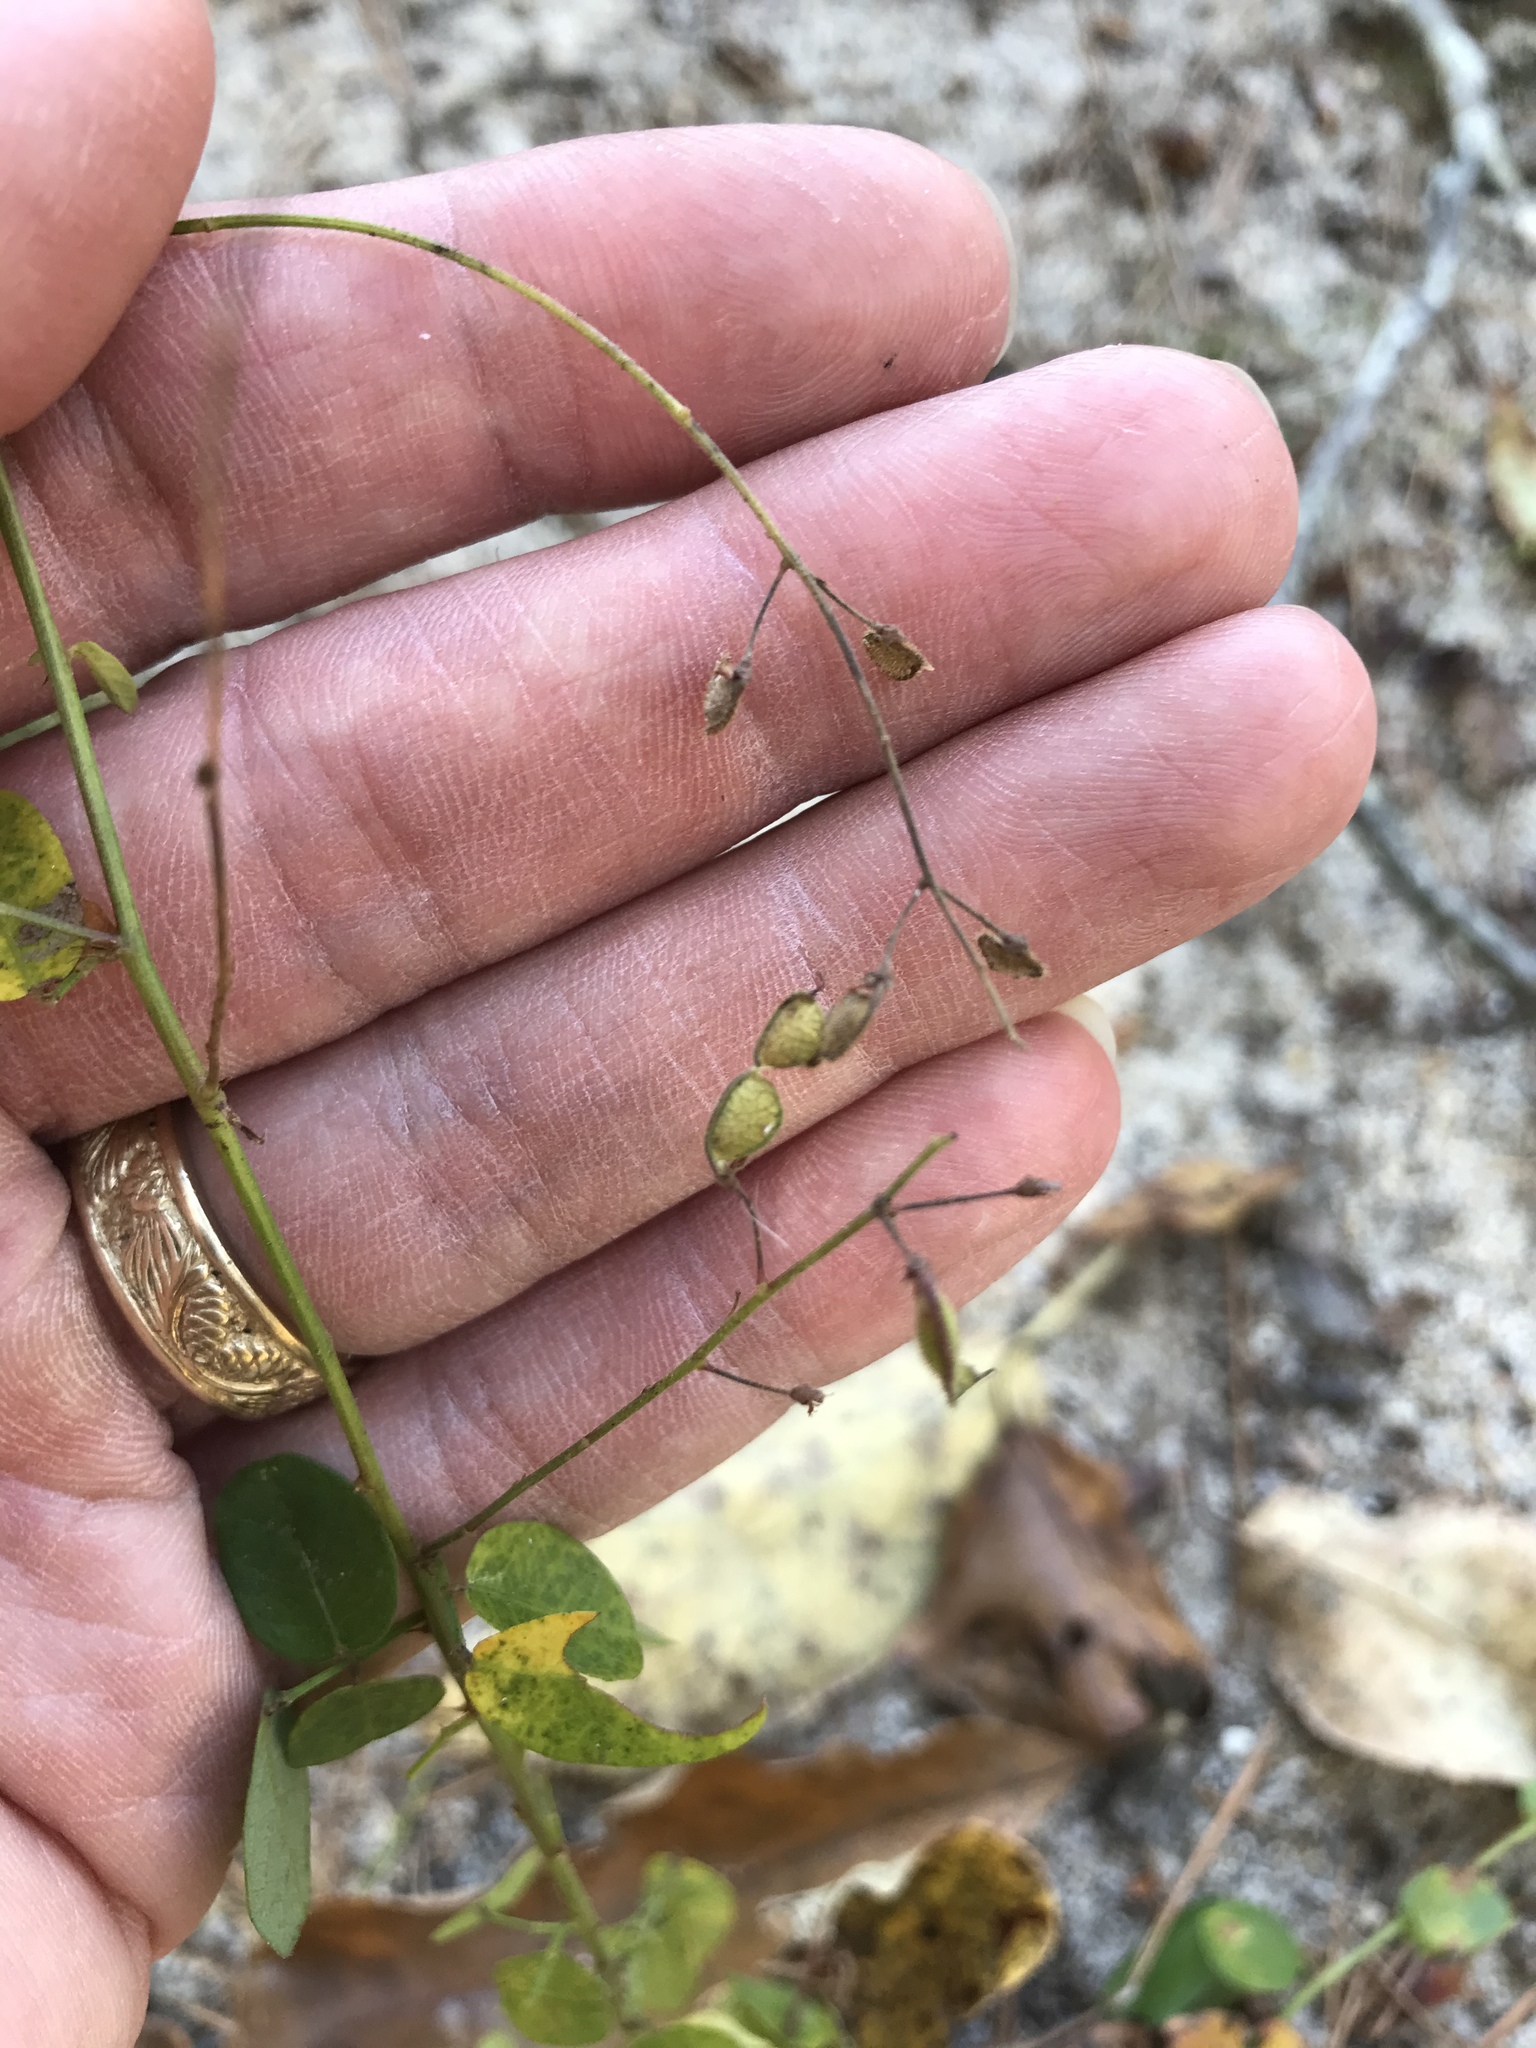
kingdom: Plantae
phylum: Tracheophyta
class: Magnoliopsida
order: Fabales
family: Fabaceae
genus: Desmodium
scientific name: Desmodium ciliare
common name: Hairy small-leaf ticktrefoil
